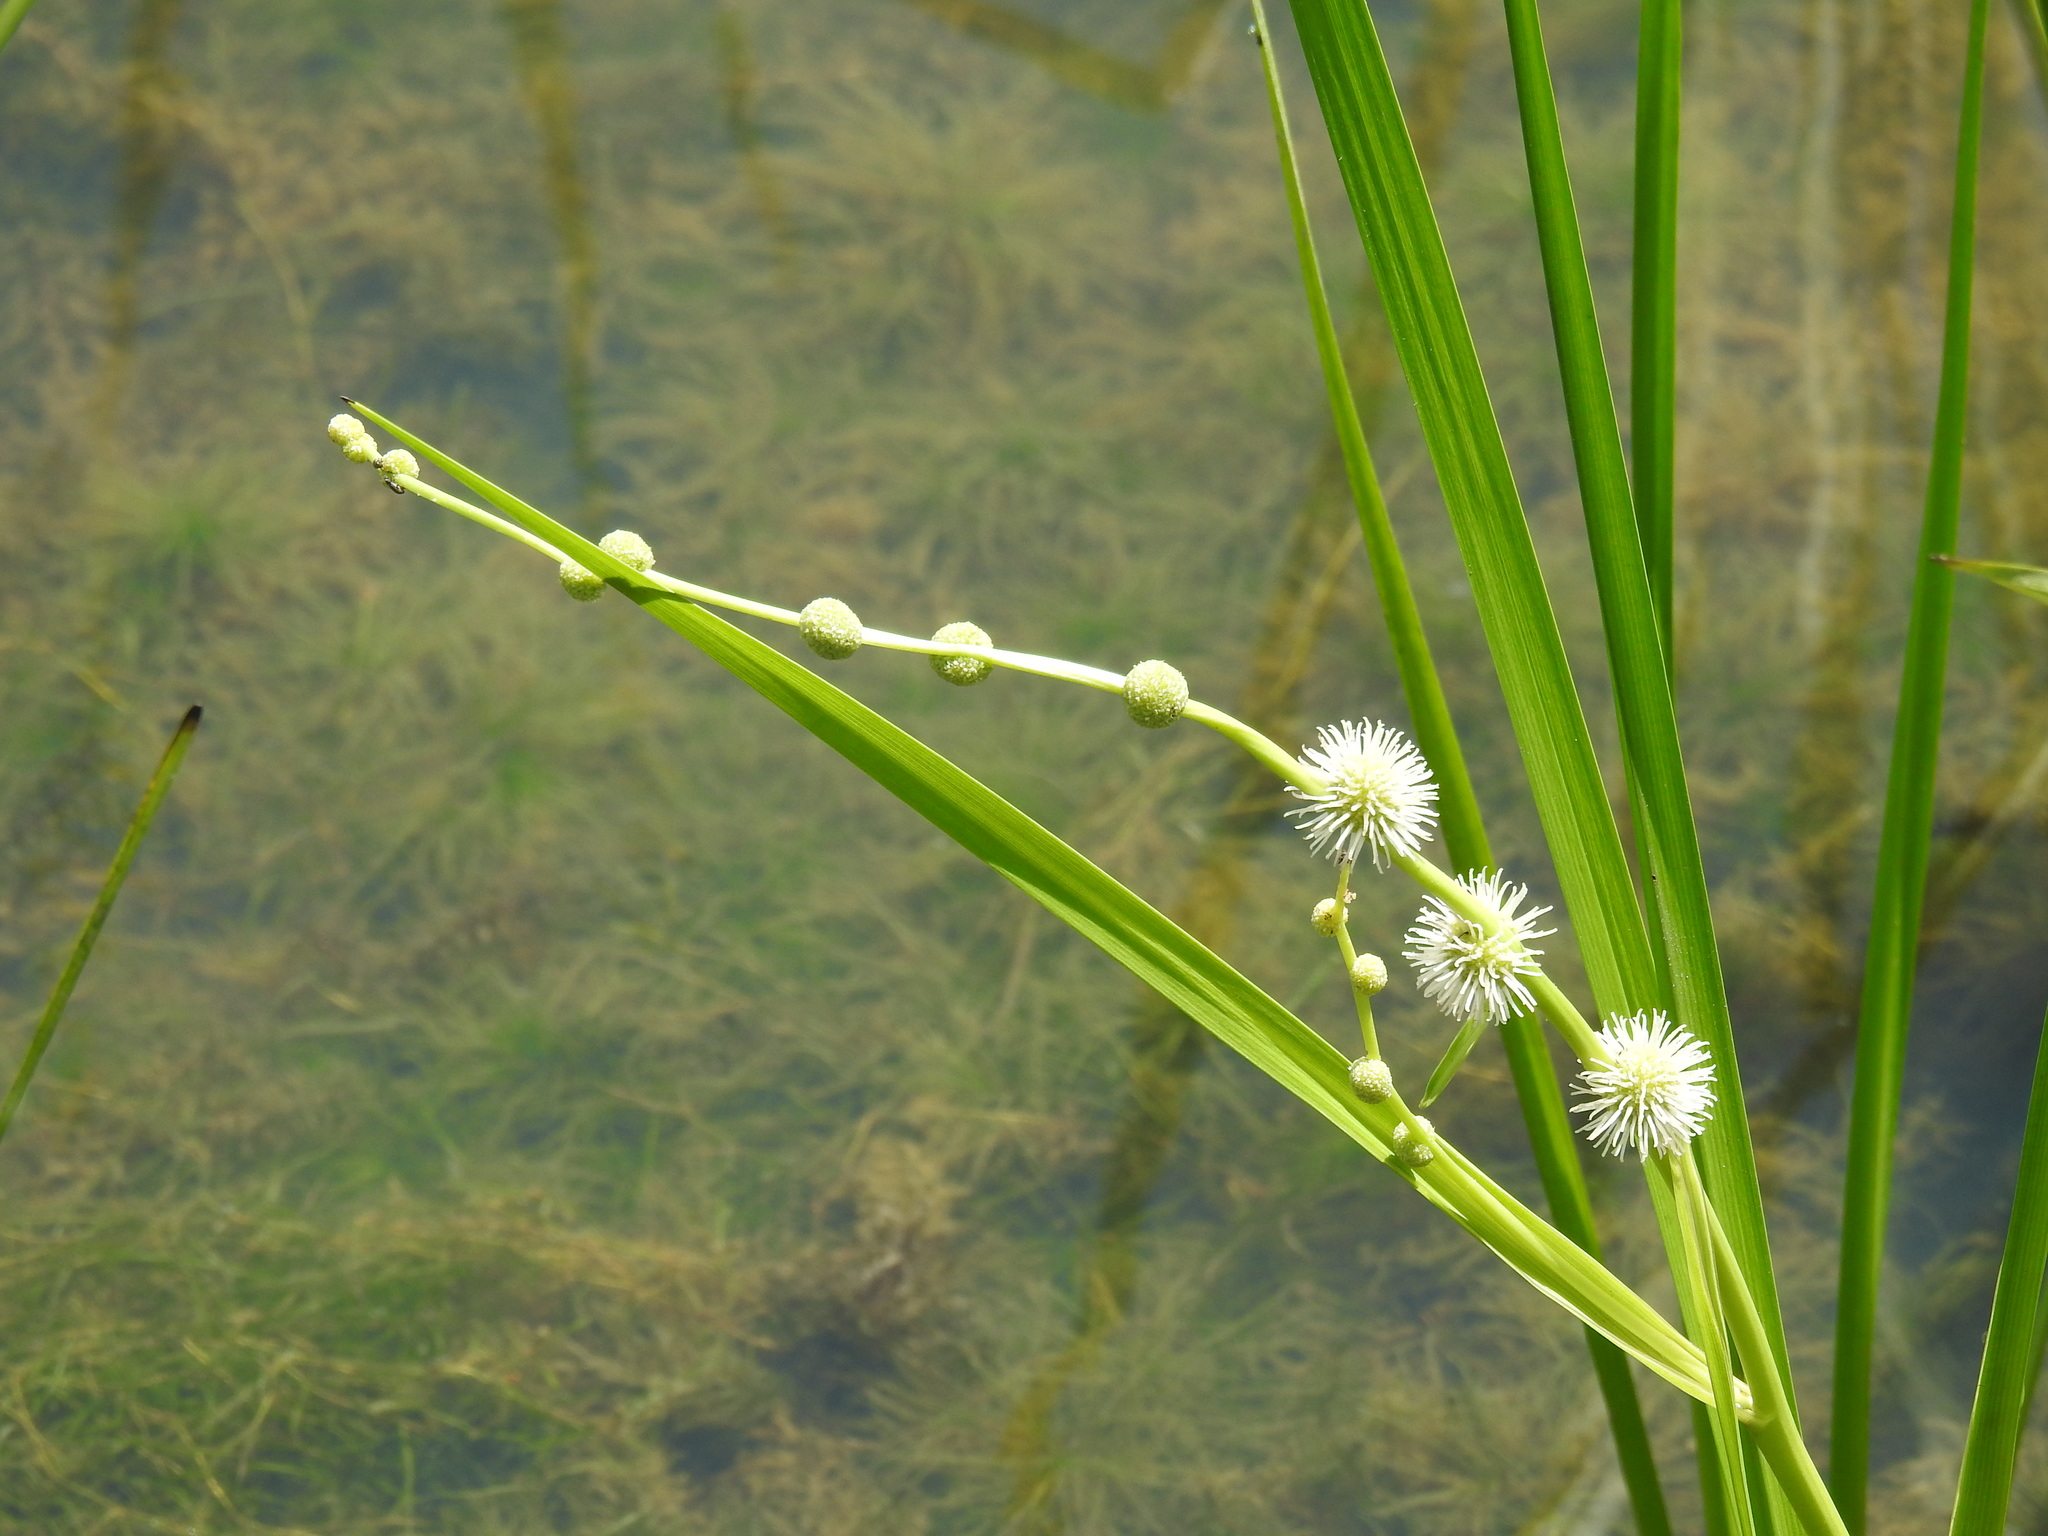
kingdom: Plantae
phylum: Tracheophyta
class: Liliopsida
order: Poales
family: Typhaceae
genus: Sparganium
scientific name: Sparganium americanum
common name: American burreed
